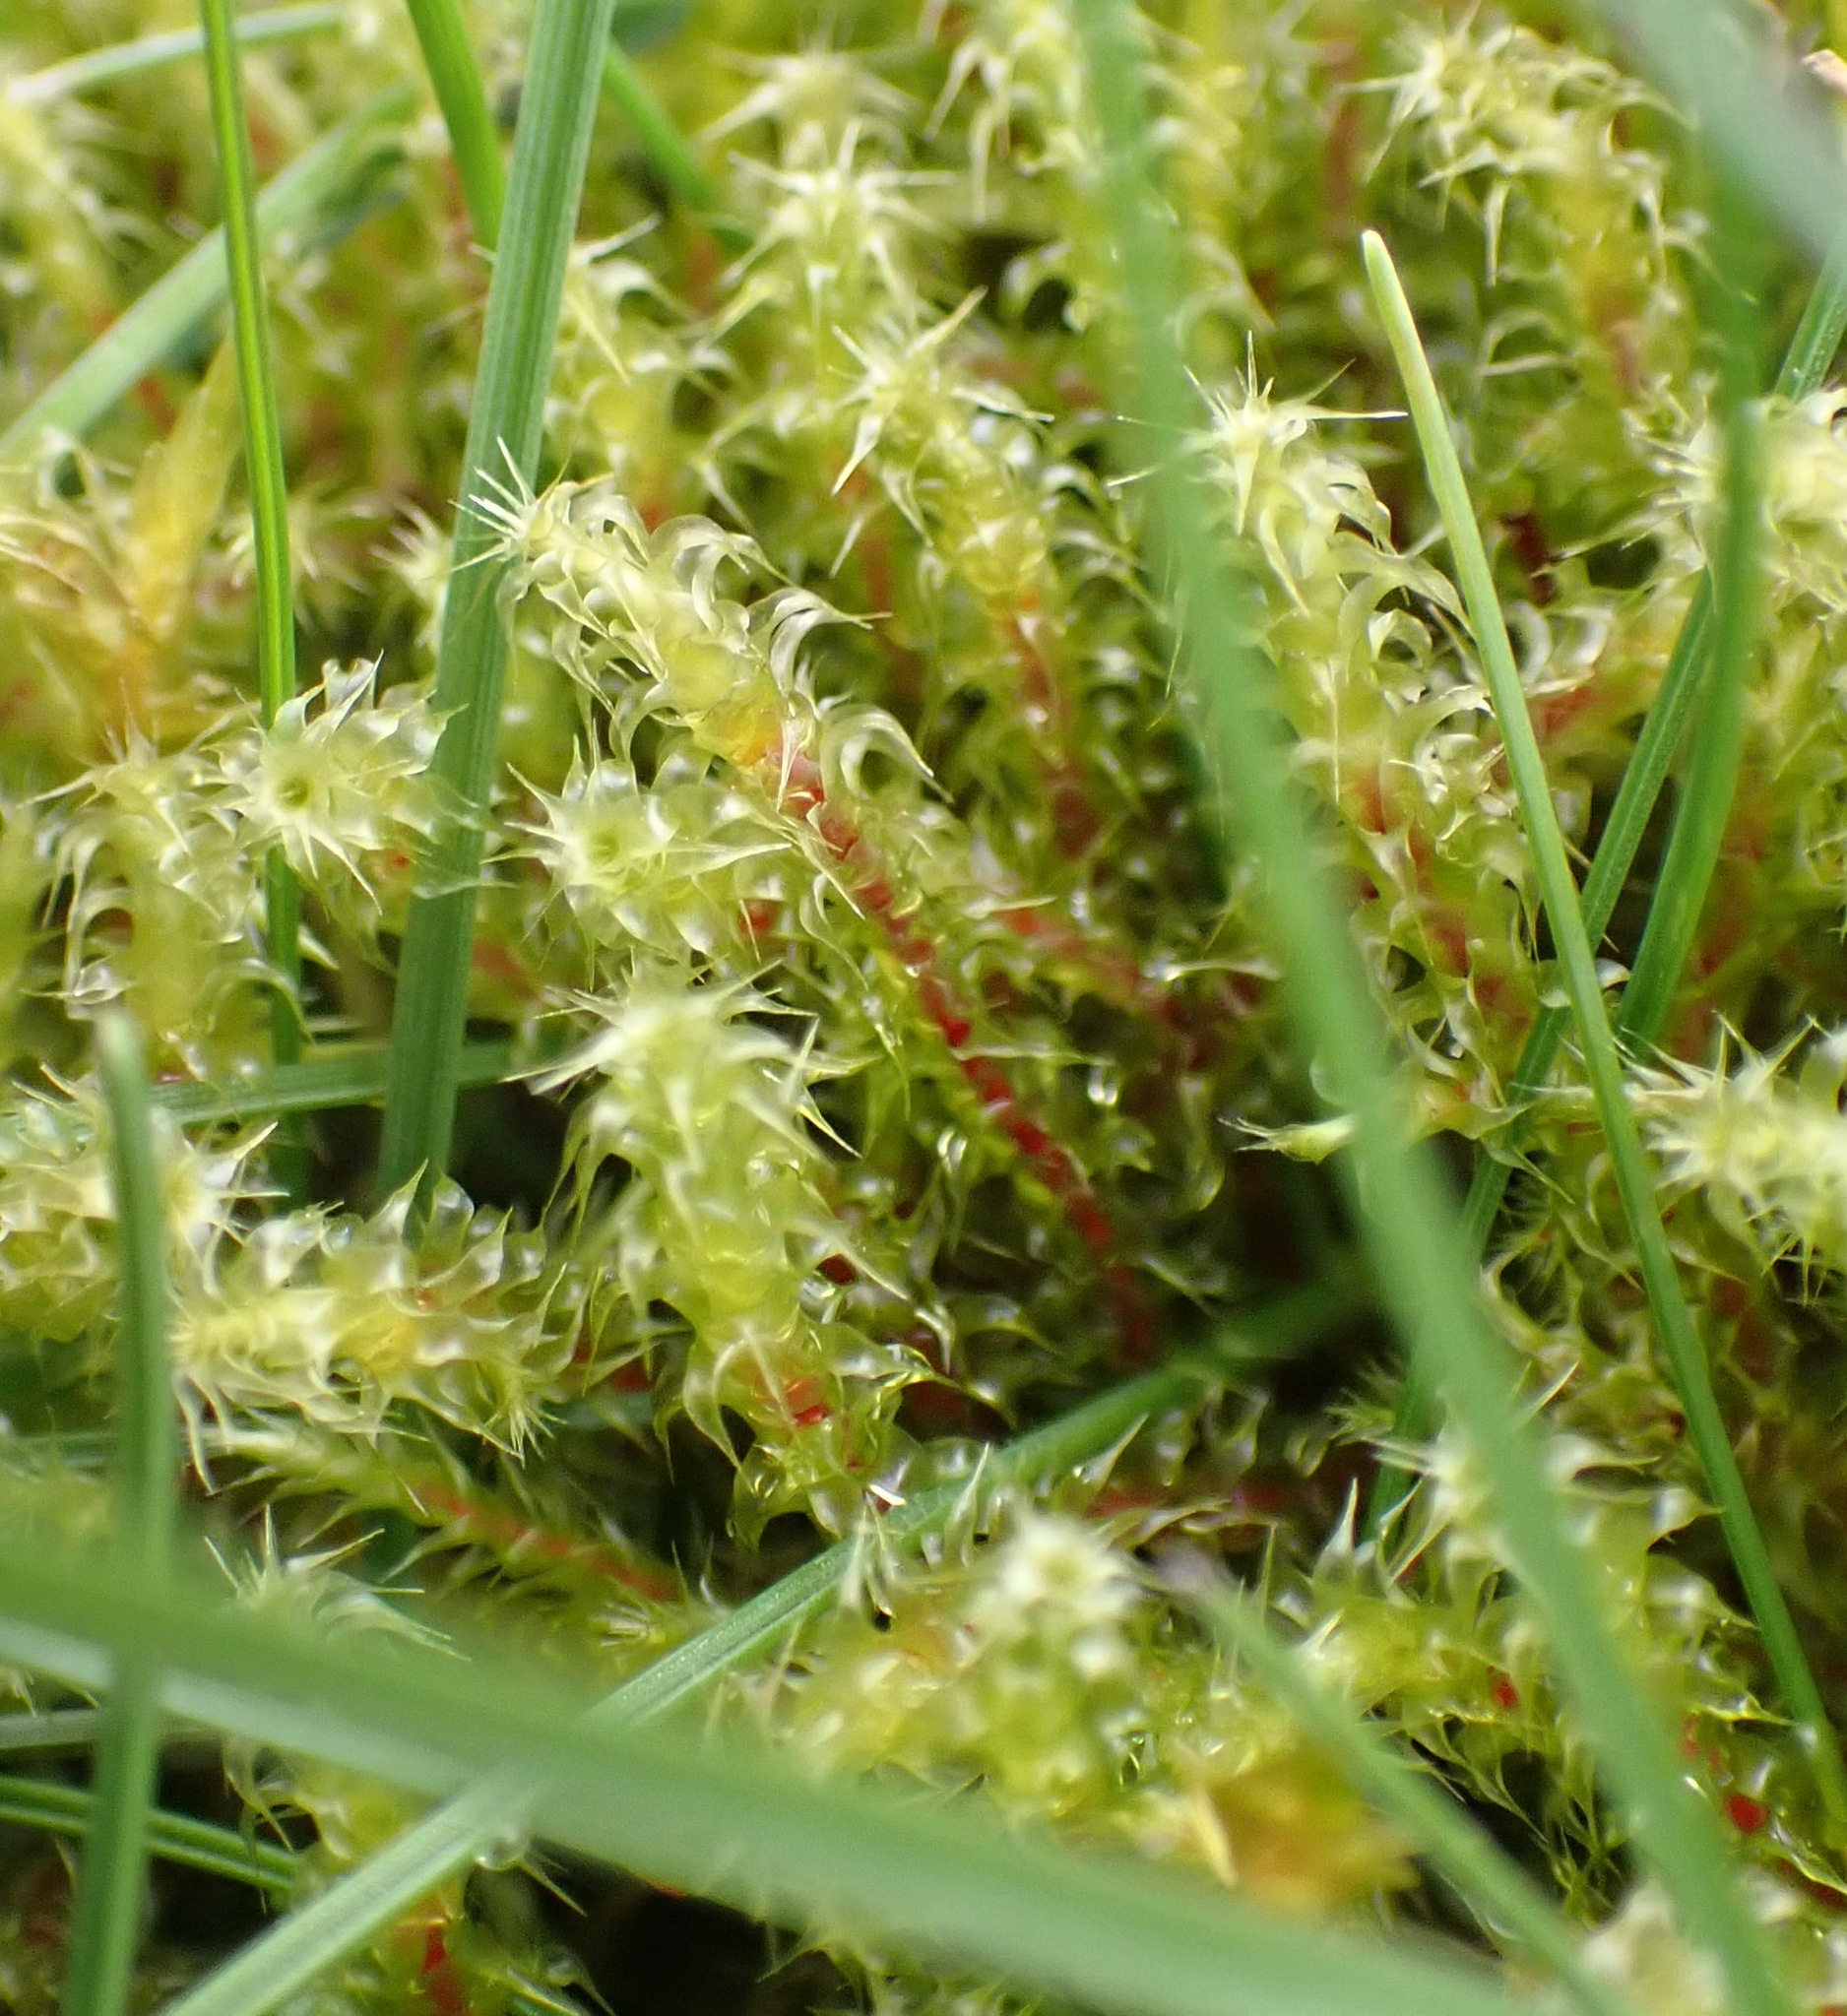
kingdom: Plantae
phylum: Bryophyta
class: Bryopsida
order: Hypnales
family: Hylocomiaceae
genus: Rhytidiadelphus
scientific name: Rhytidiadelphus squarrosus
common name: Springy turf-moss
